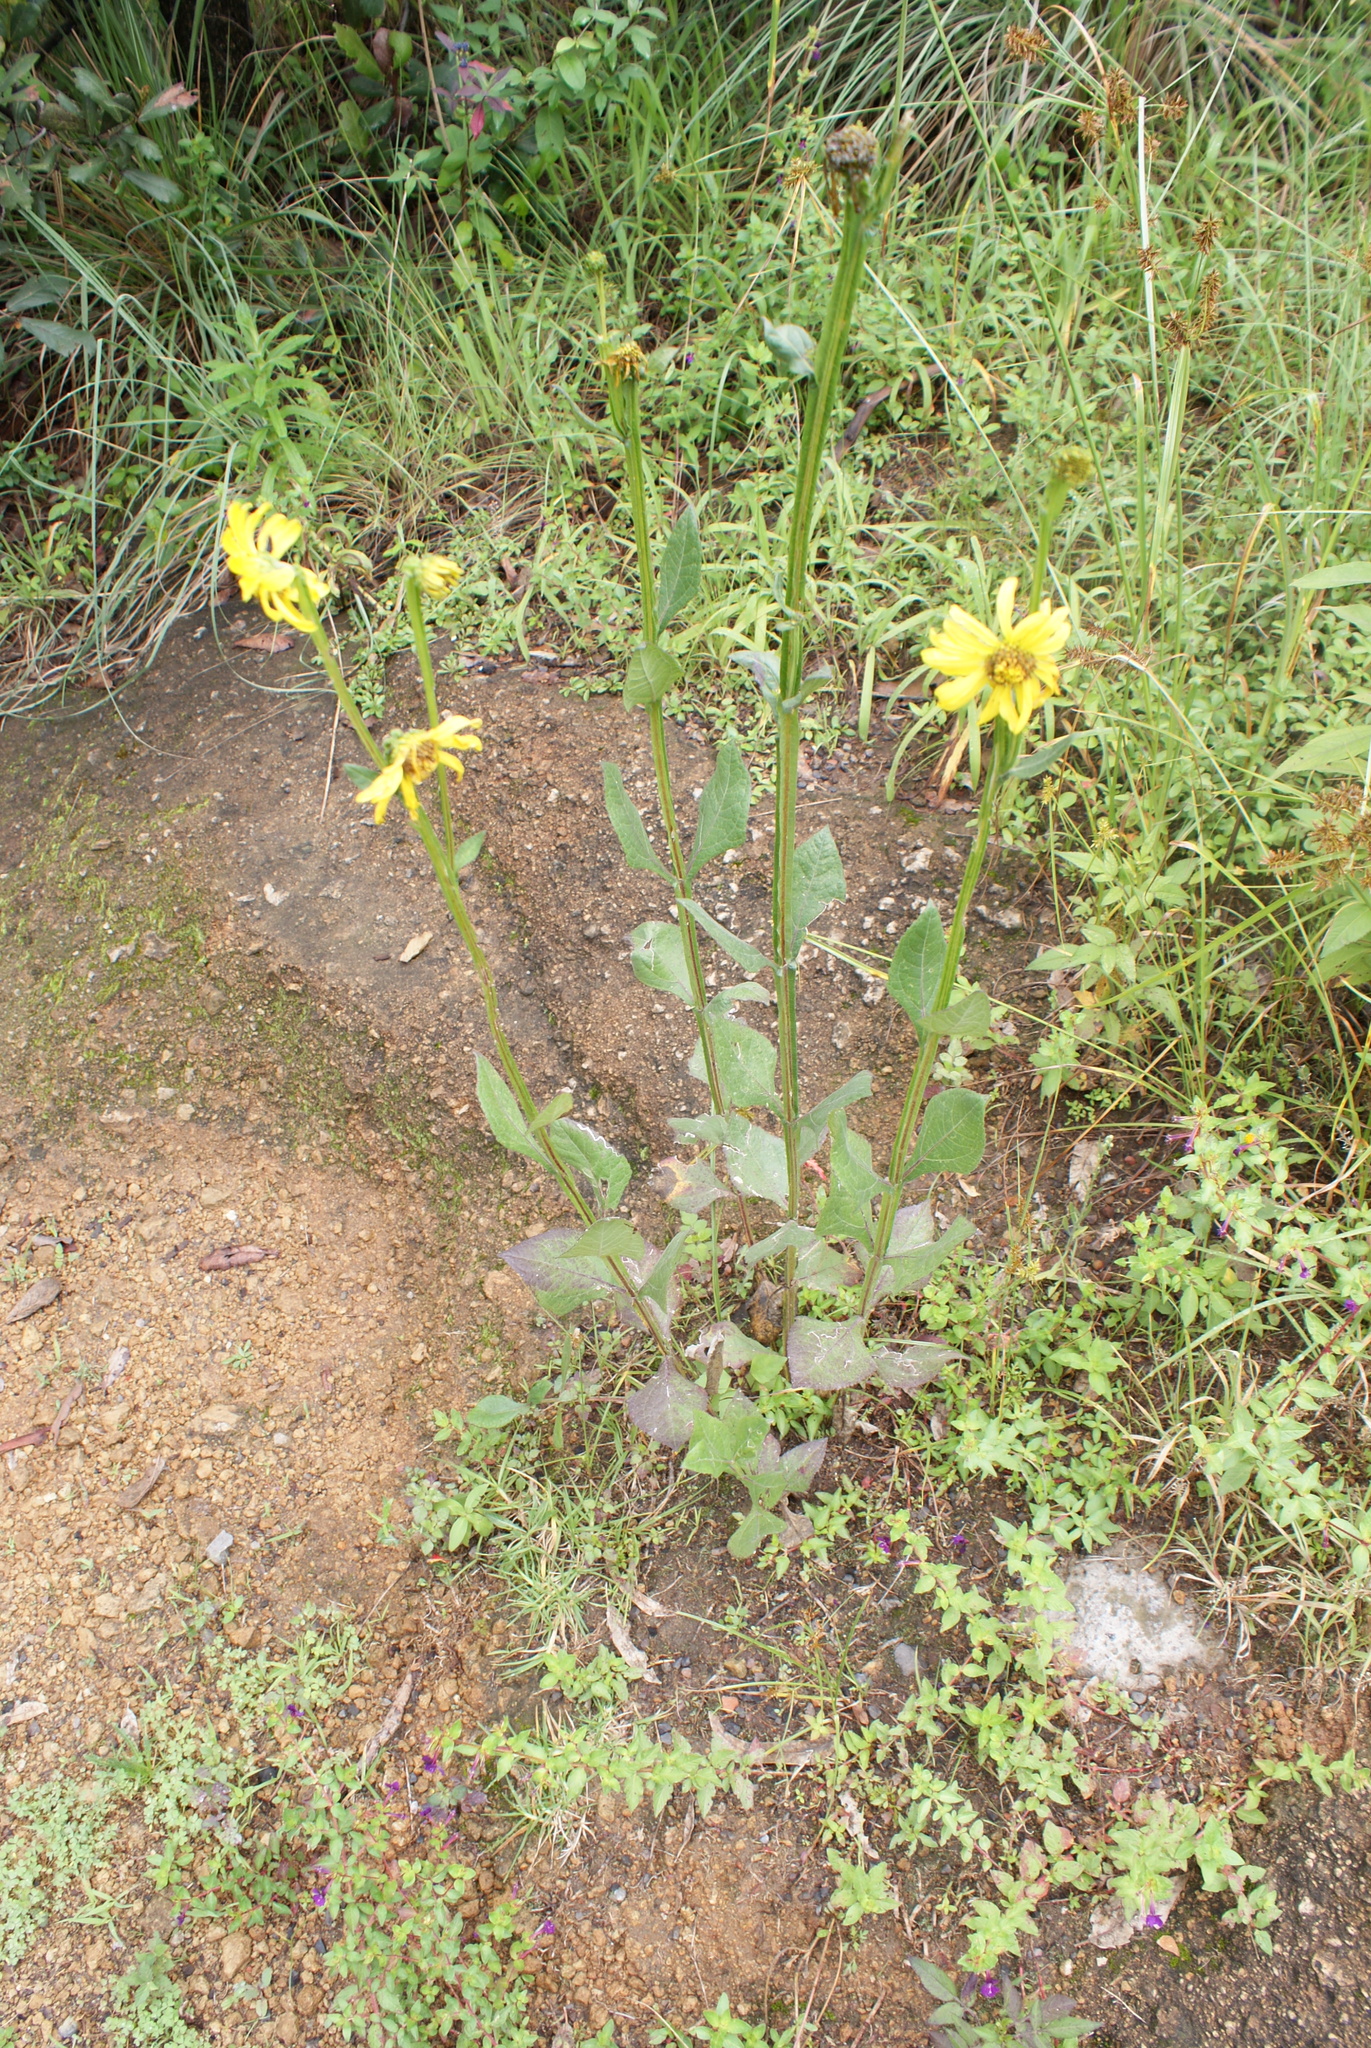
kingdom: Plantae
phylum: Tracheophyta
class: Magnoliopsida
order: Asterales
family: Asteraceae
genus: Verbesina
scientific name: Verbesina tetraptera
